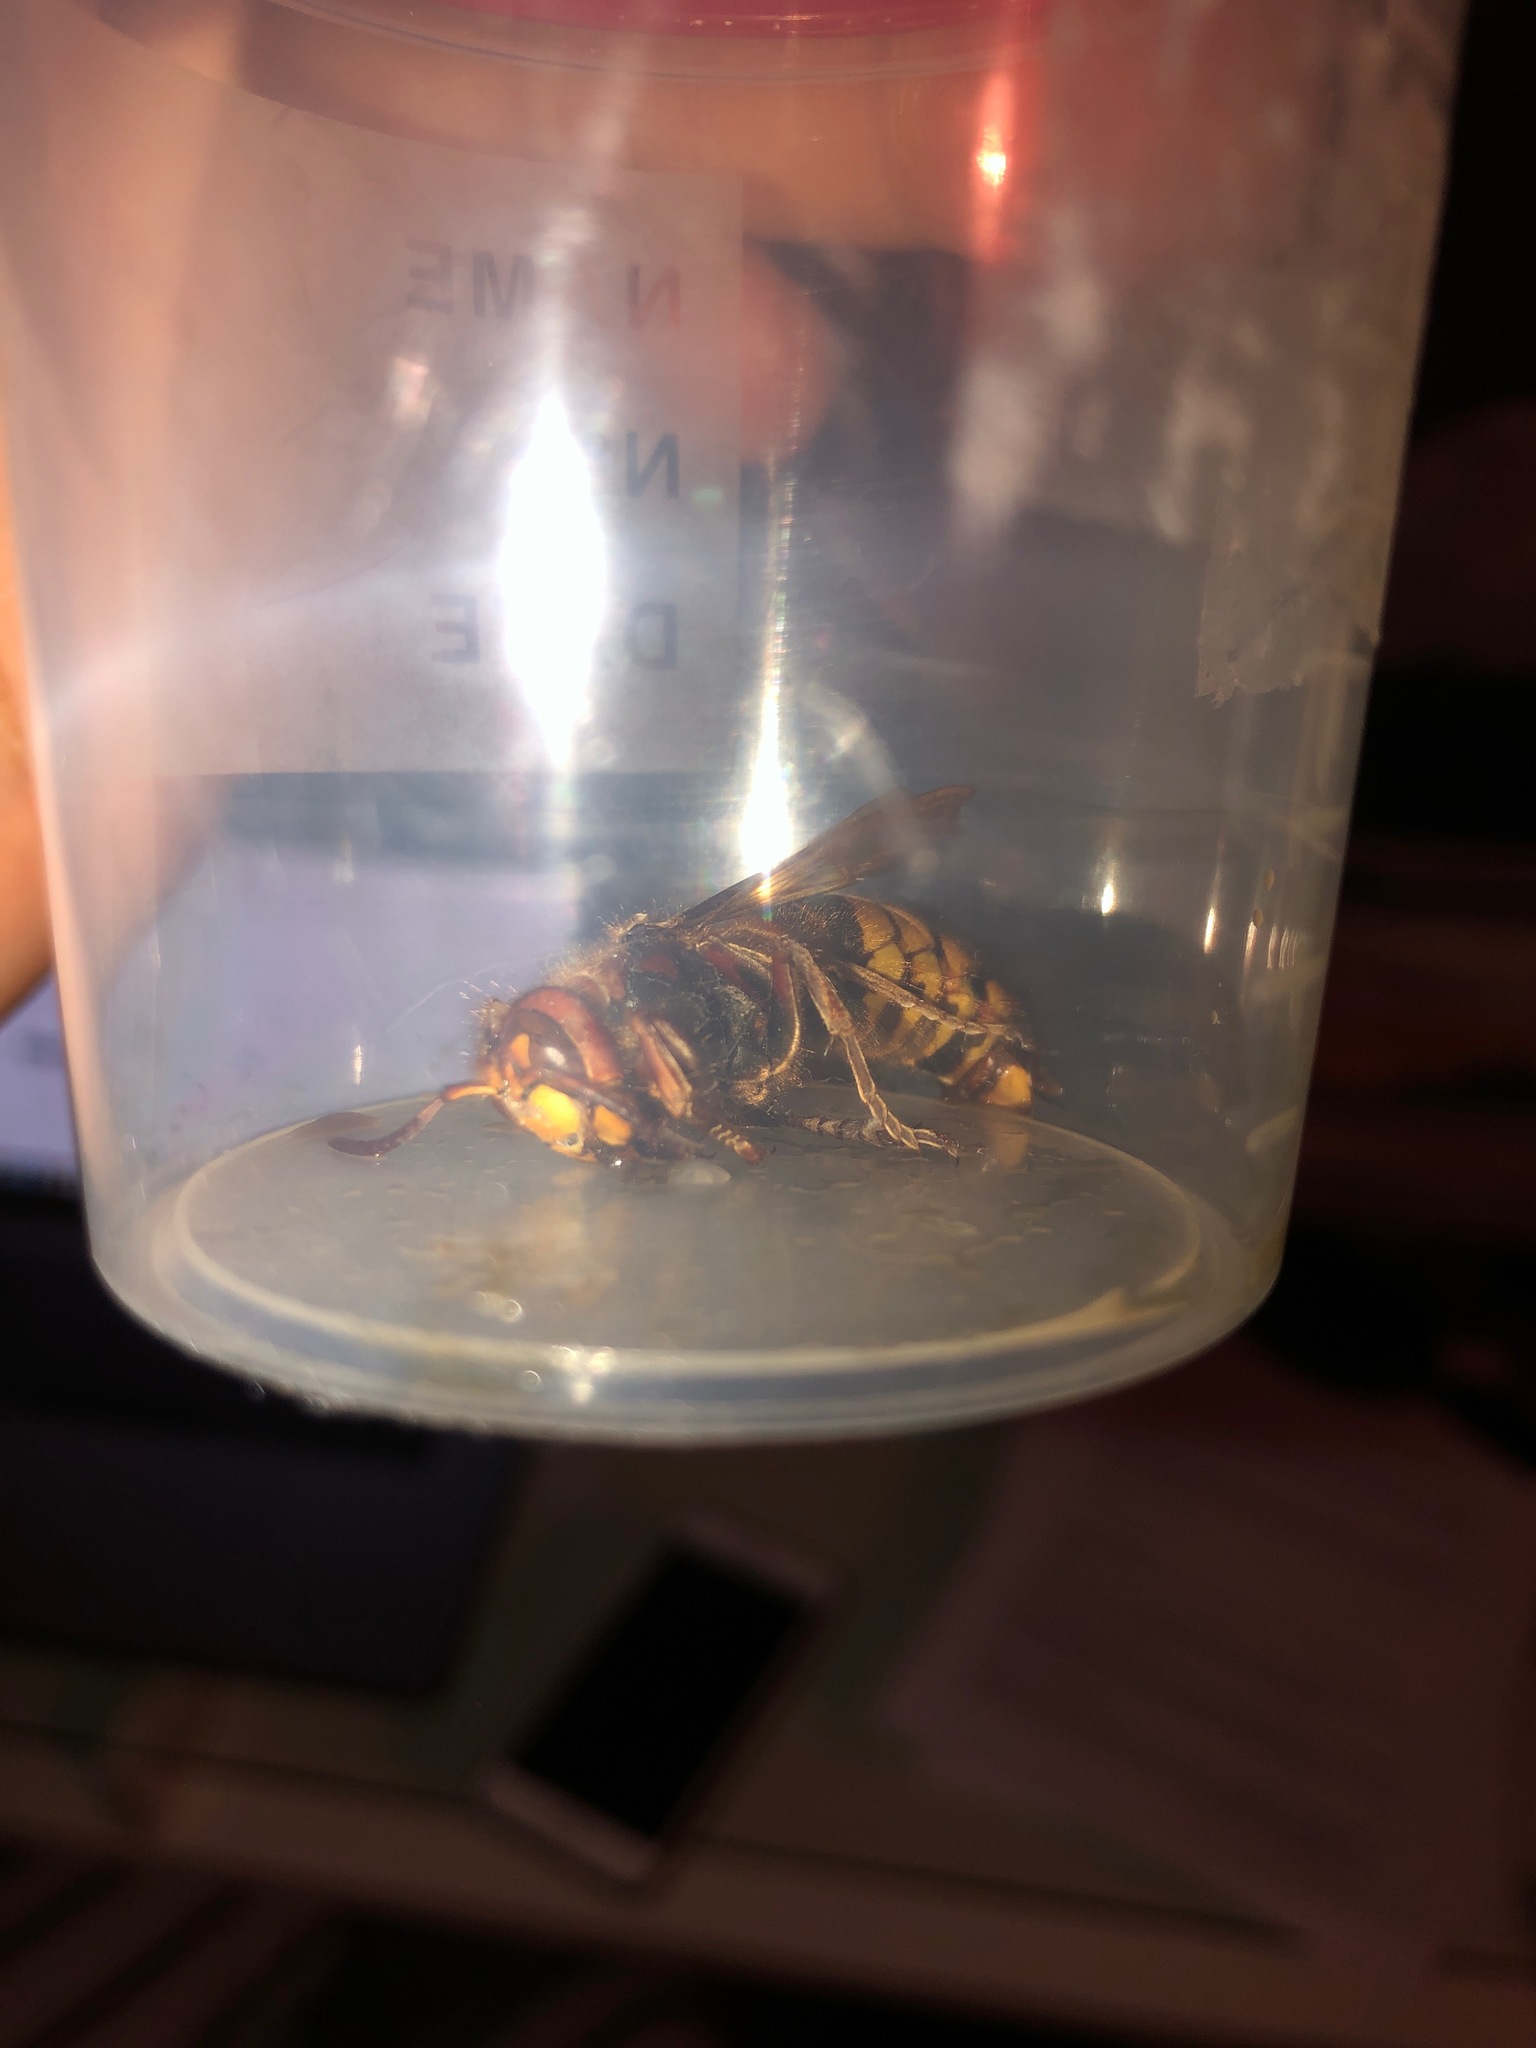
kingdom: Animalia
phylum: Arthropoda
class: Insecta
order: Hymenoptera
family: Vespidae
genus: Vespa
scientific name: Vespa crabro
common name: Hornet
